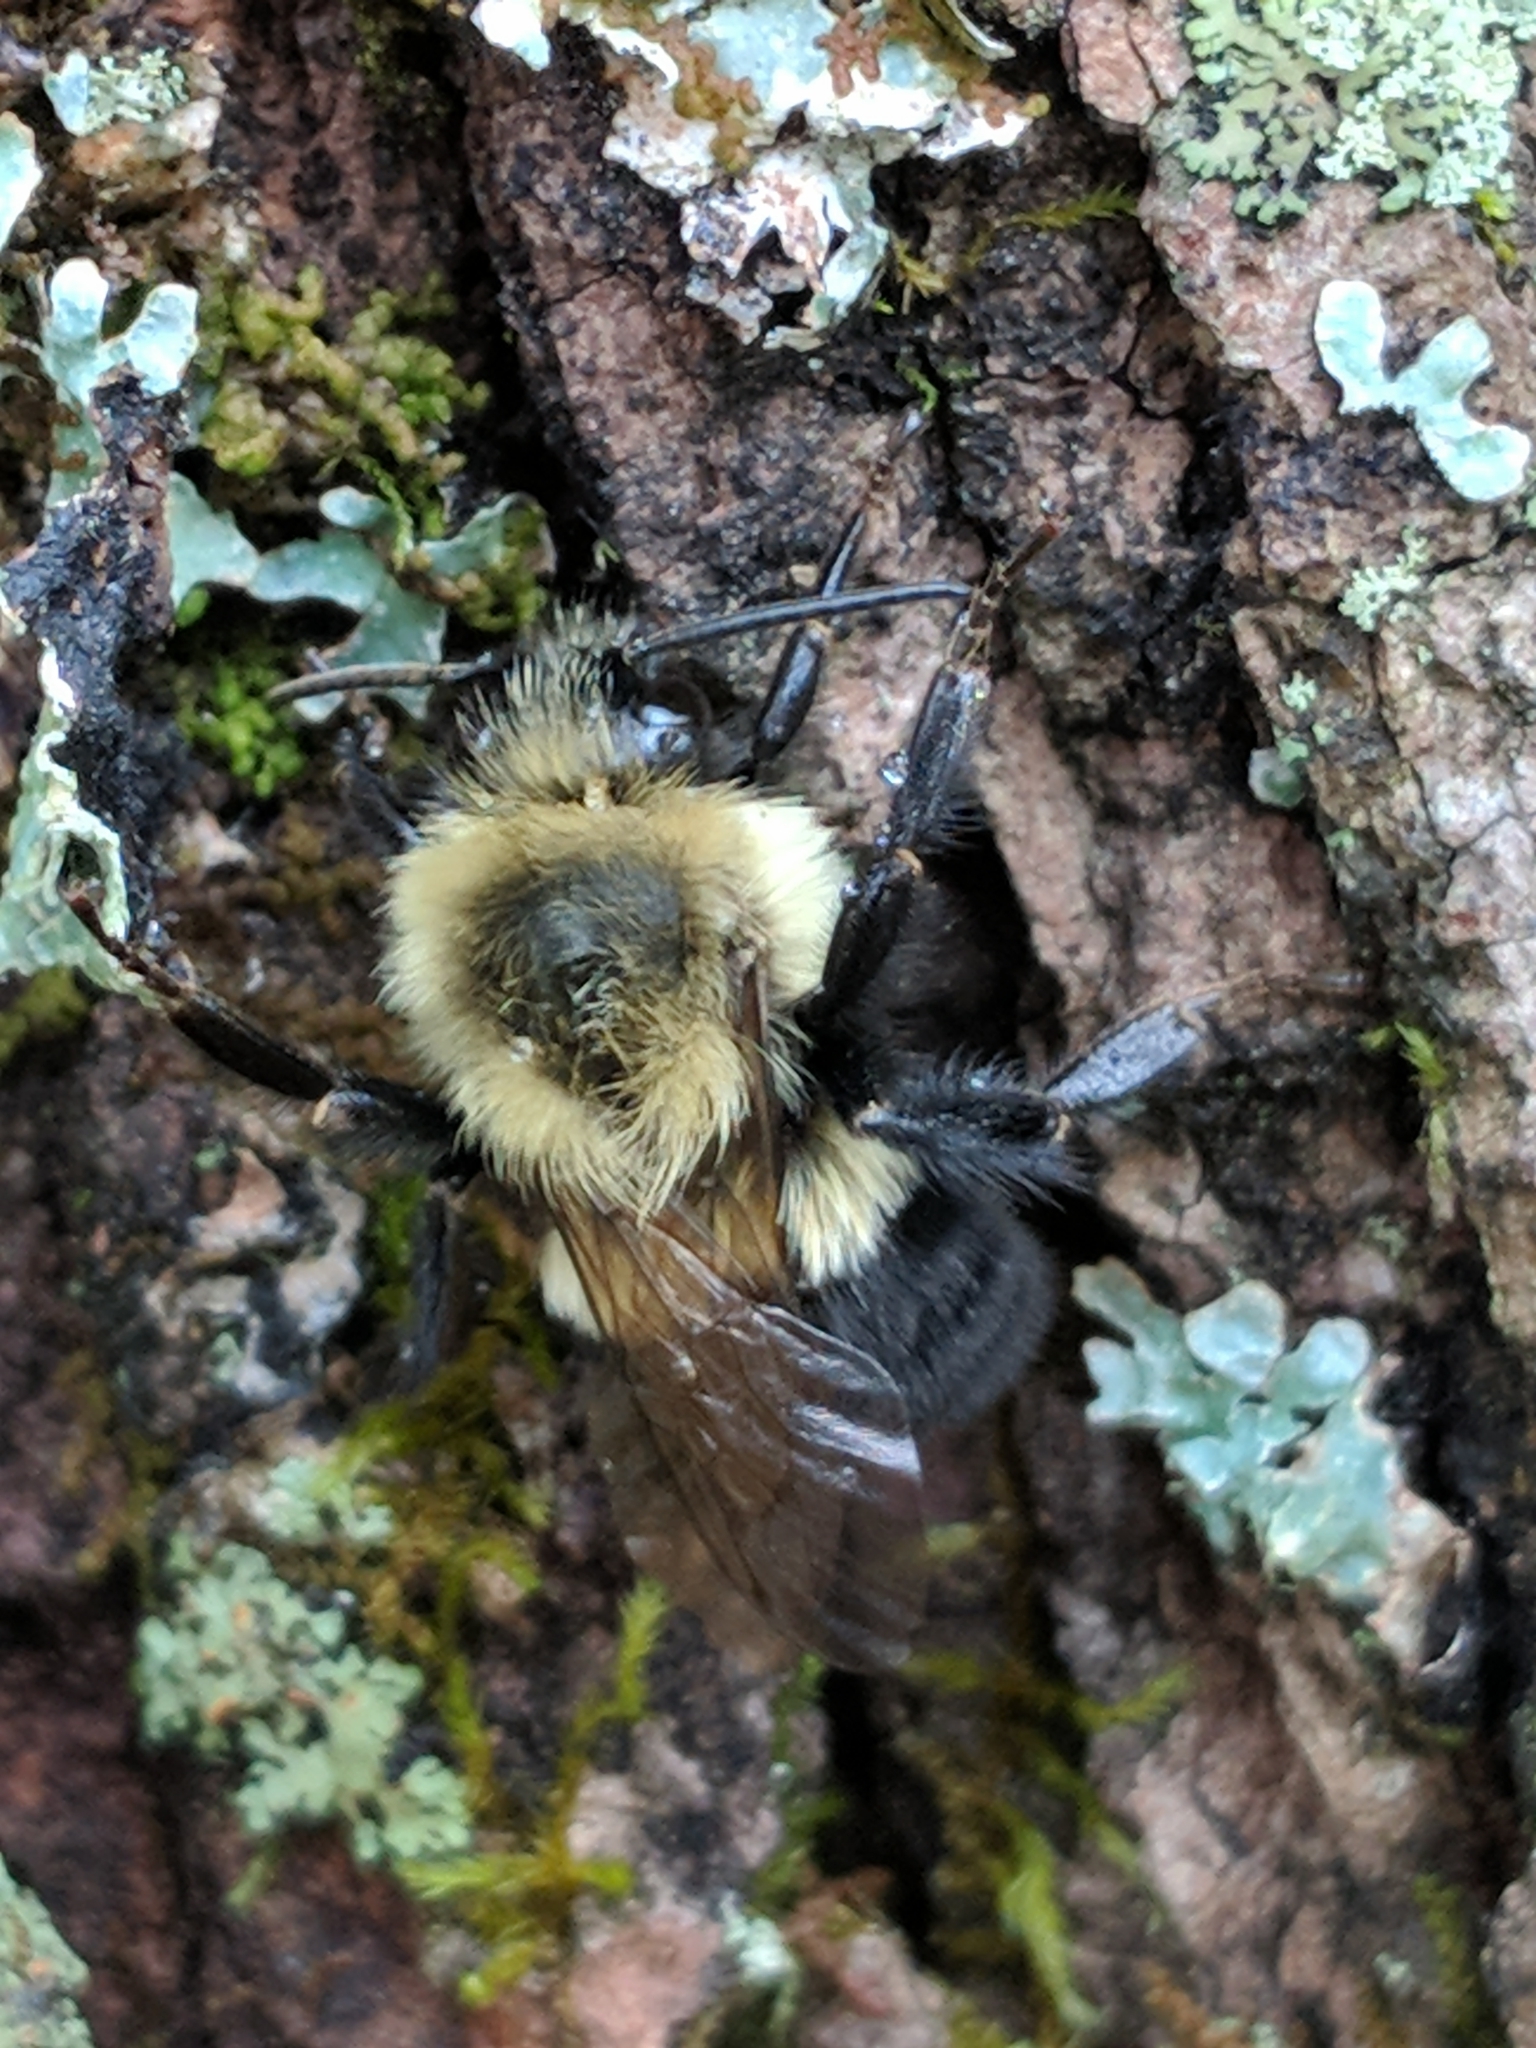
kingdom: Animalia
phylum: Arthropoda
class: Insecta
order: Hymenoptera
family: Apidae
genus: Bombus
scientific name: Bombus impatiens
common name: Common eastern bumble bee
